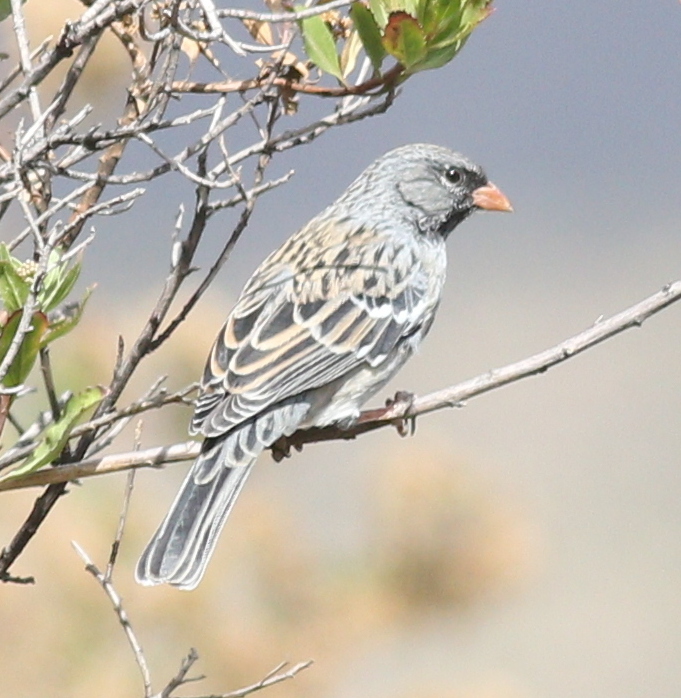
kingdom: Animalia
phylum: Chordata
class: Aves
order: Passeriformes
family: Thraupidae
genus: Rhopospina
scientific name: Rhopospina fruticeti
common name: Mourning sierra finch
